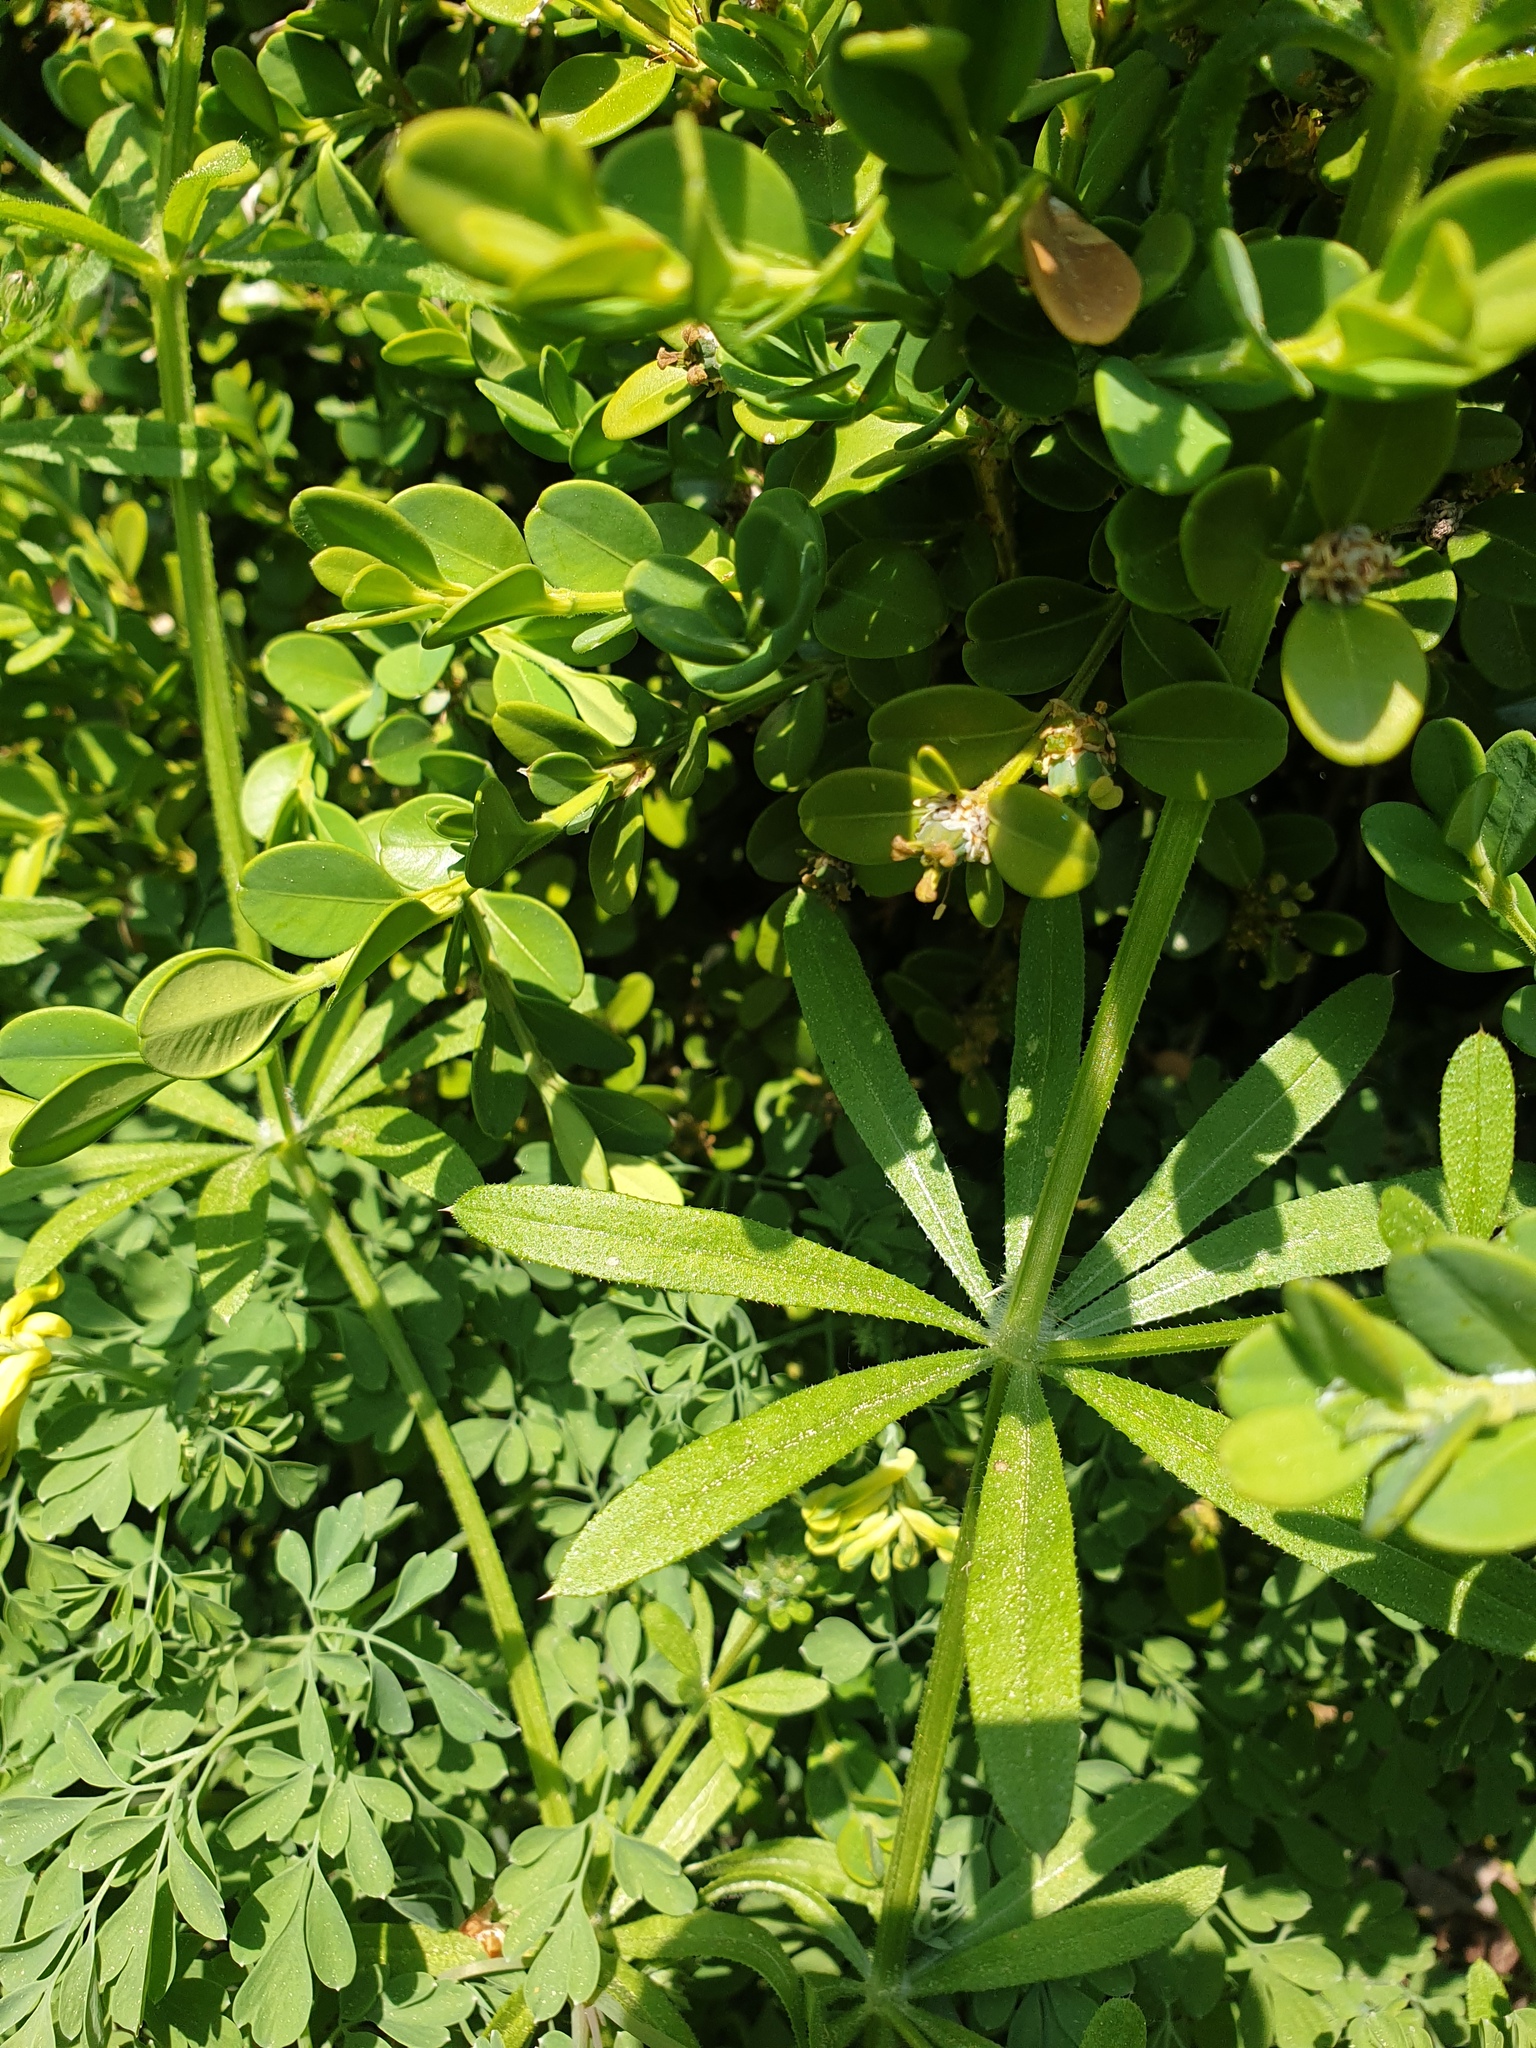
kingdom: Plantae
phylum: Tracheophyta
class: Magnoliopsida
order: Gentianales
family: Rubiaceae
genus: Galium
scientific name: Galium aparine
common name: Cleavers
